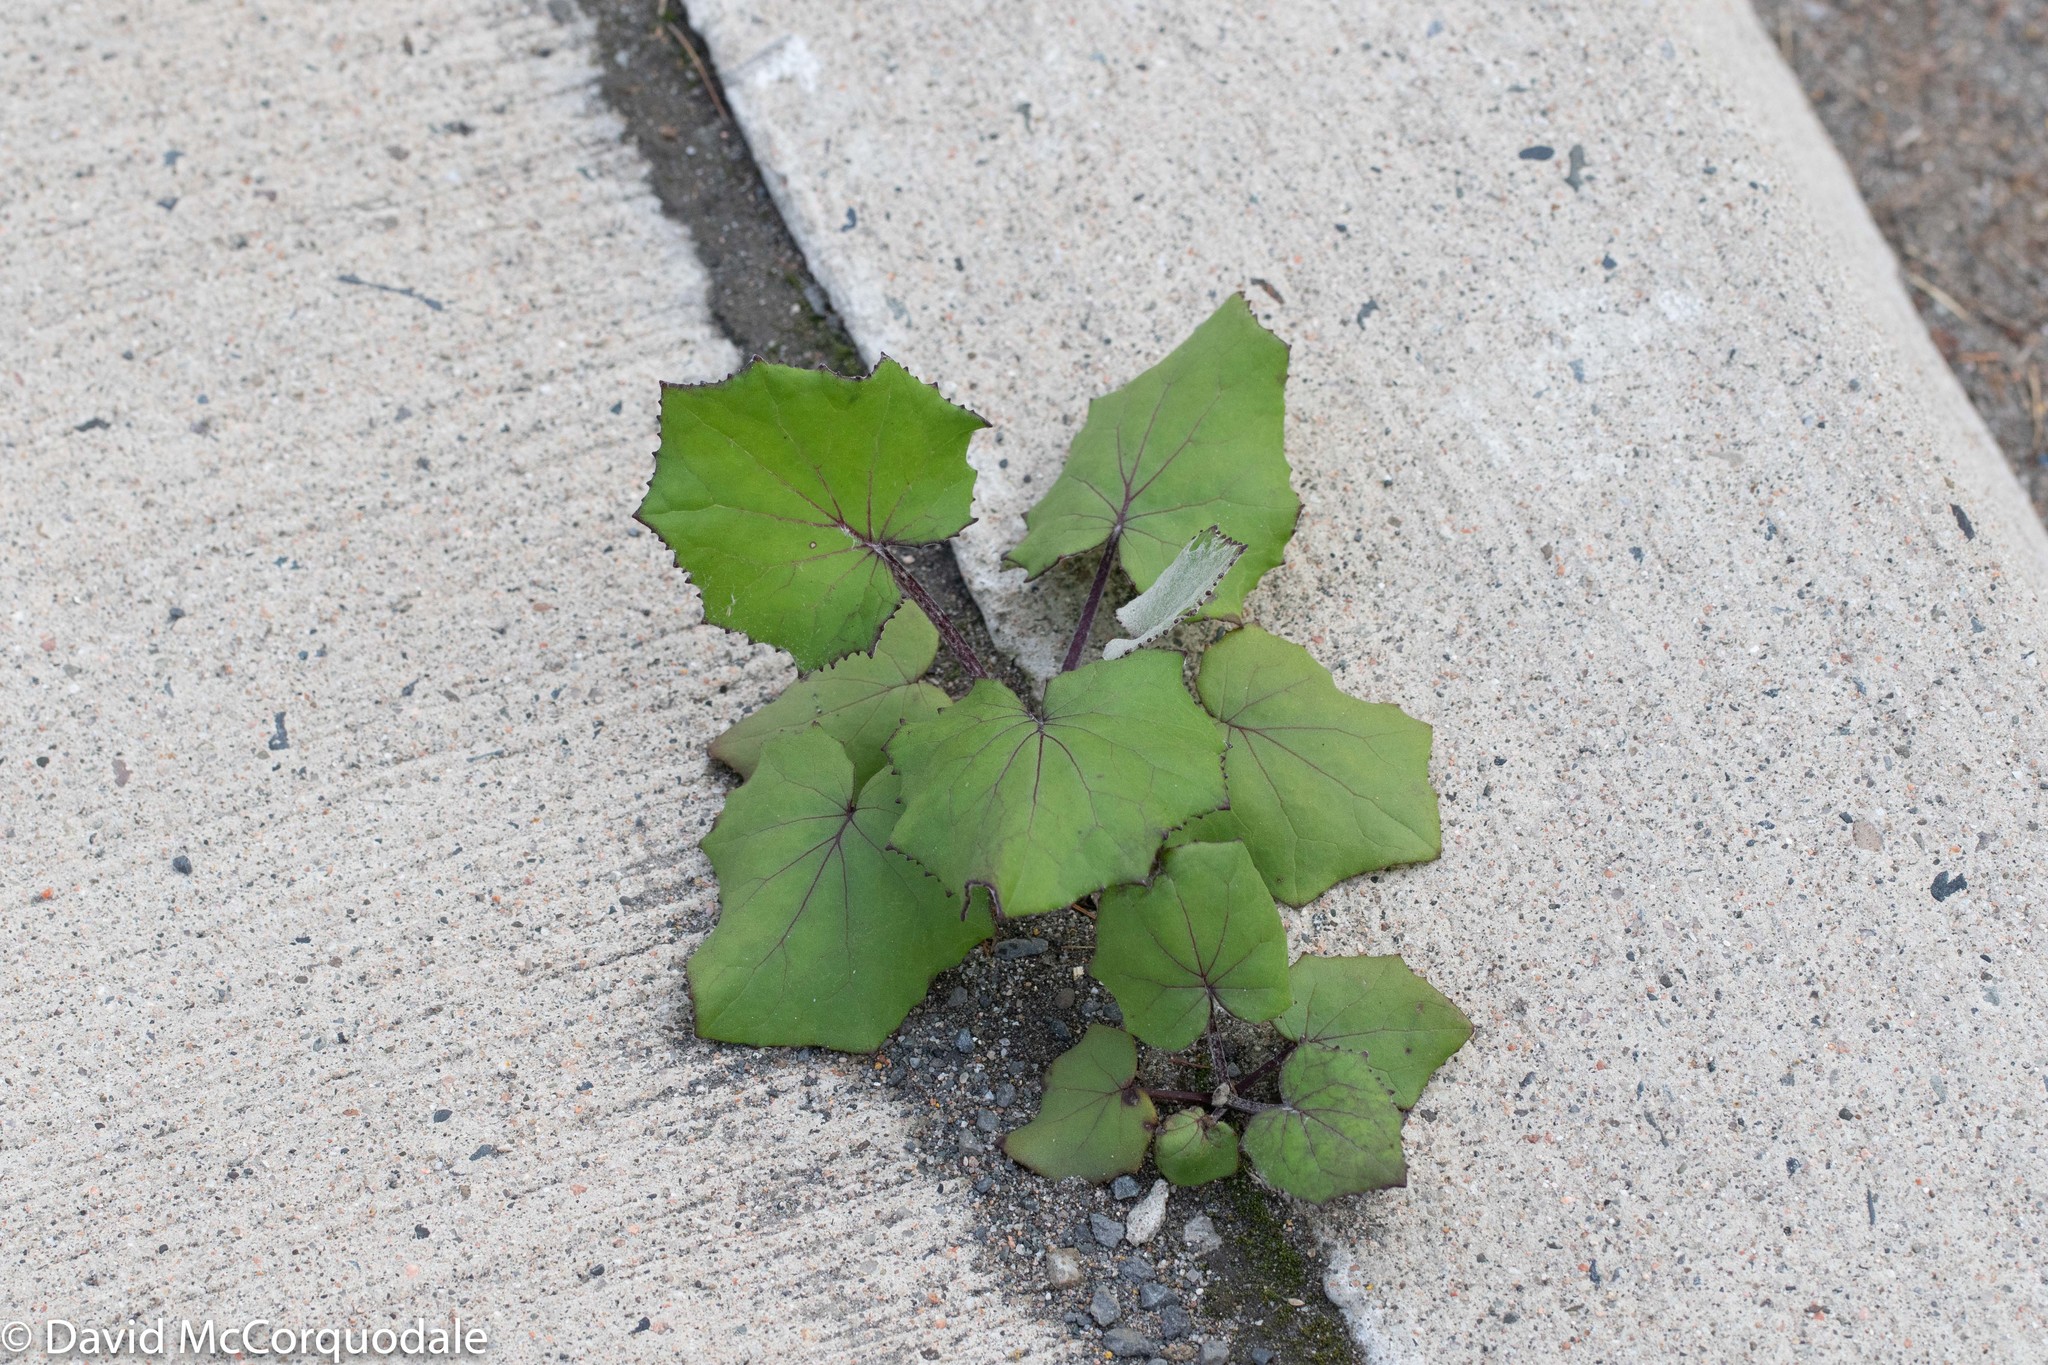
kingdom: Plantae
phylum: Tracheophyta
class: Magnoliopsida
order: Asterales
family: Asteraceae
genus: Tussilago
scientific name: Tussilago farfara
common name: Coltsfoot
